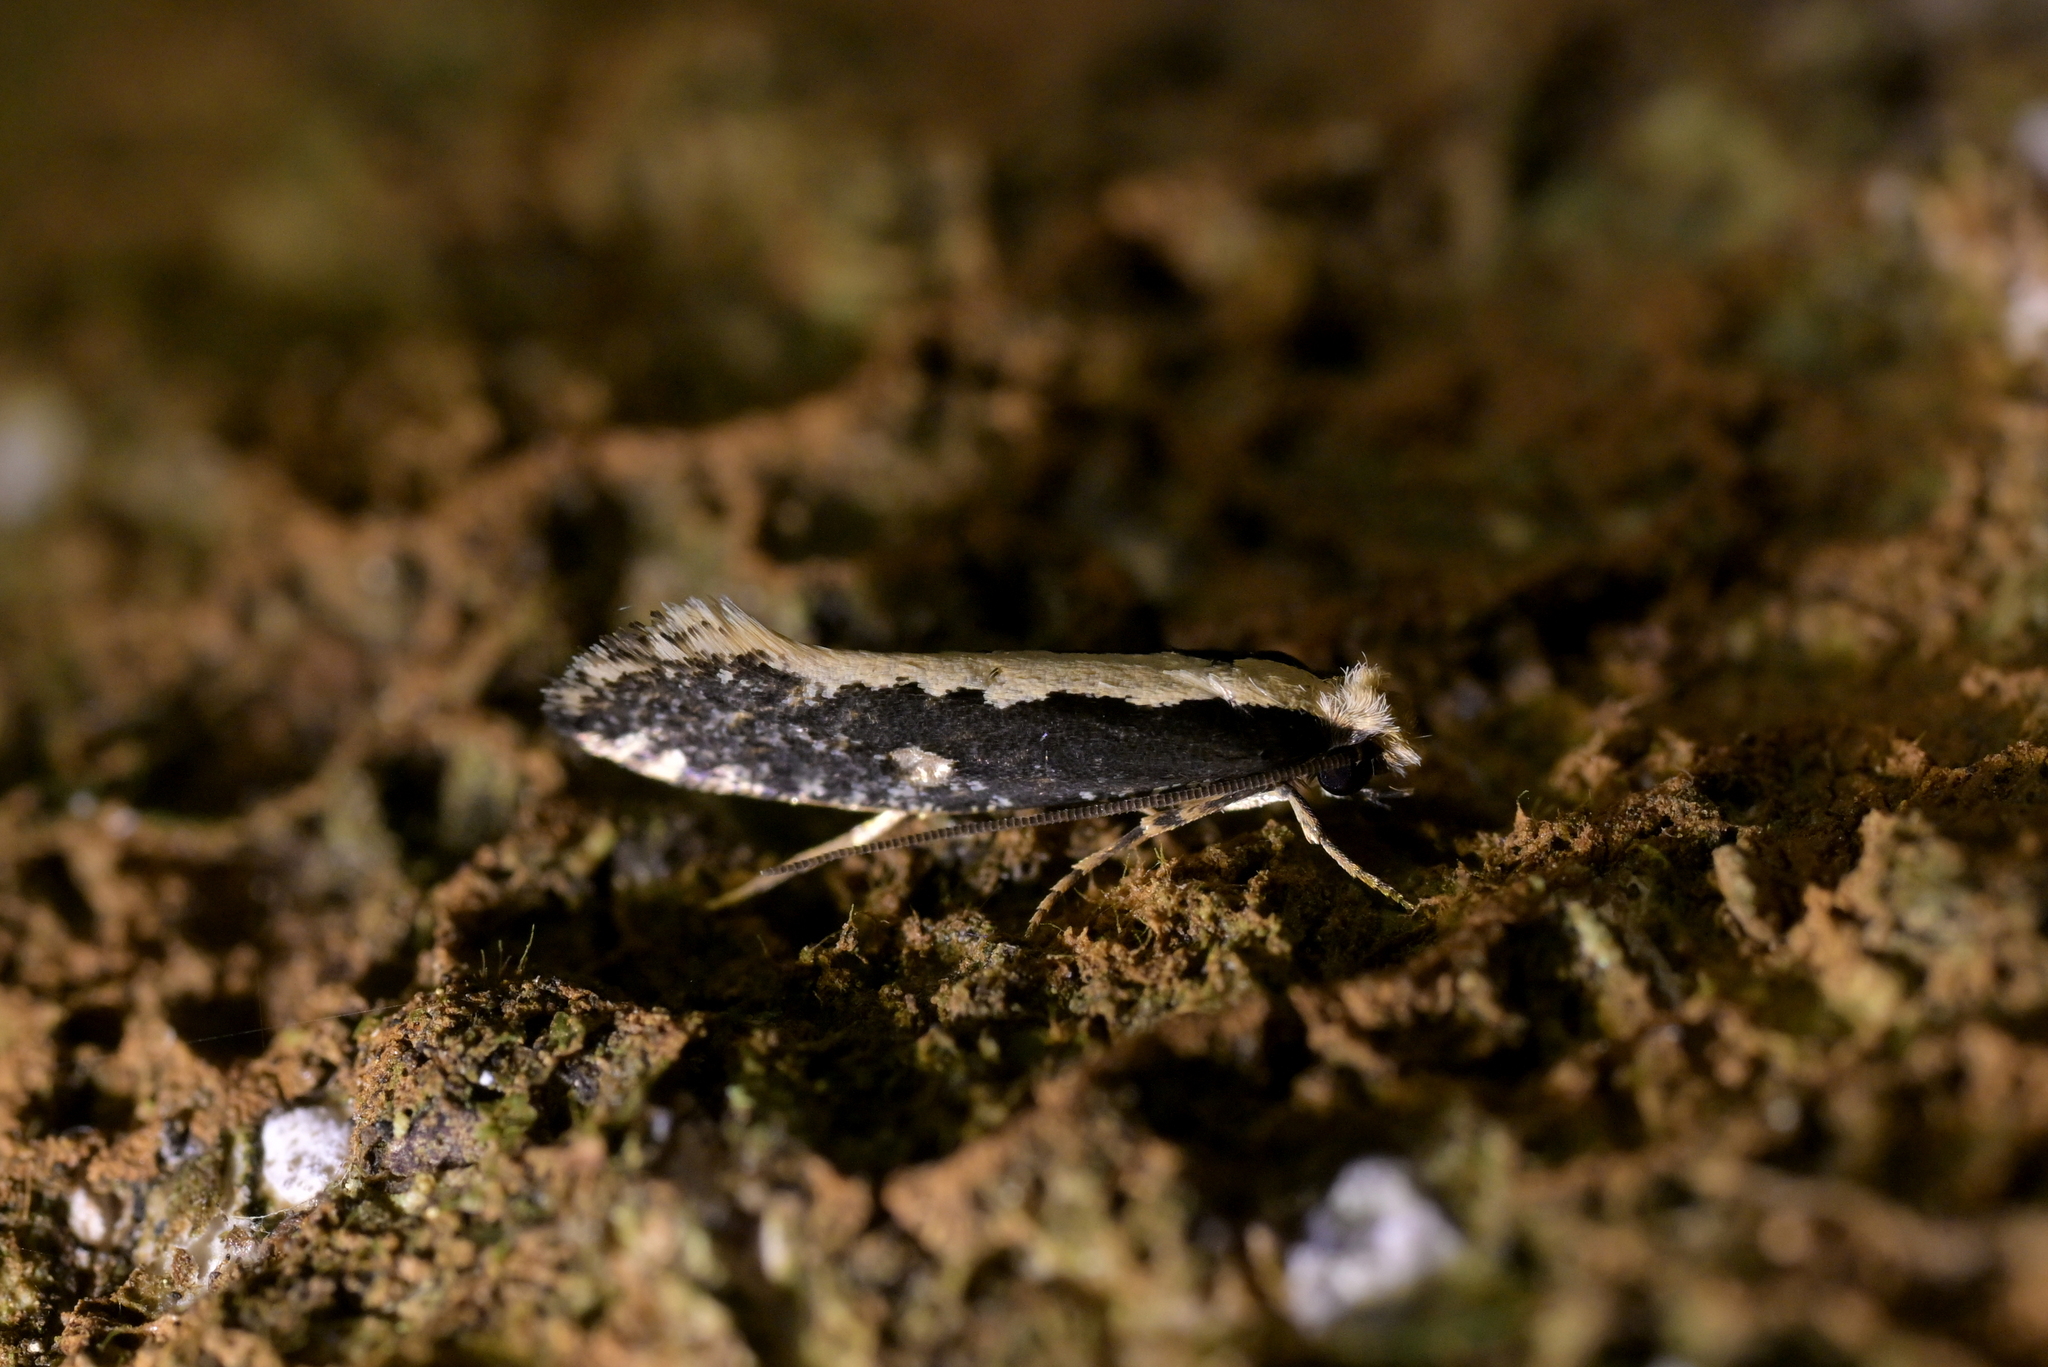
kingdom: Animalia
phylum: Arthropoda
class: Insecta
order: Lepidoptera
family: Tineidae
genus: Monopis
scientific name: Monopis ethelella
